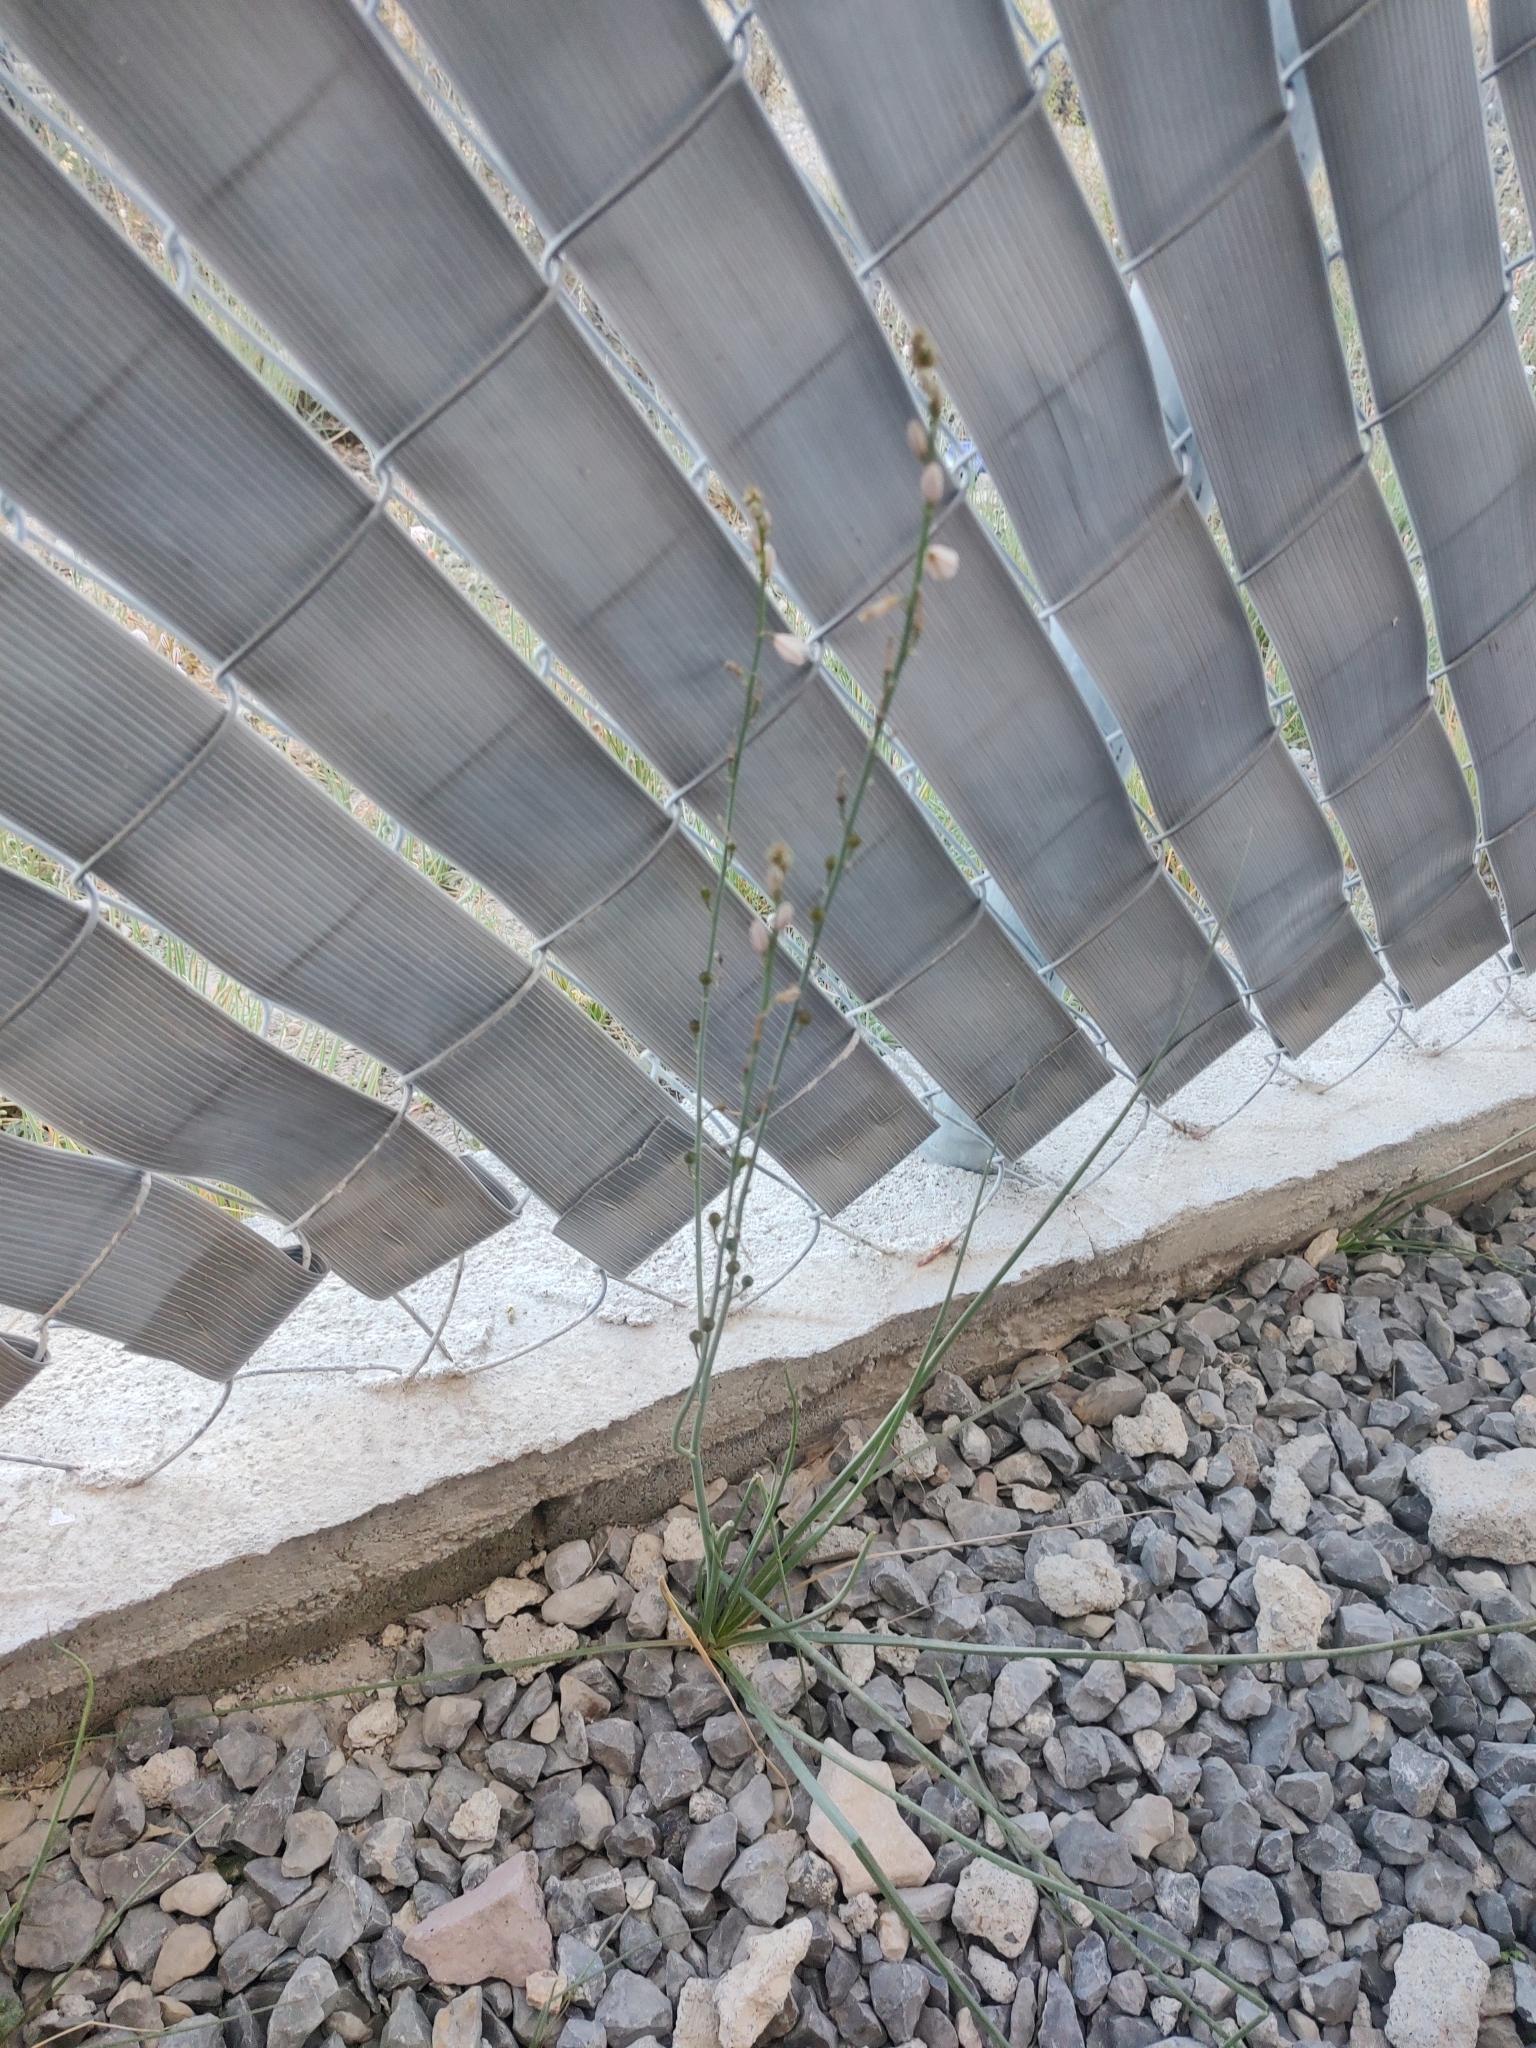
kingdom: Plantae
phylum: Tracheophyta
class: Liliopsida
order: Asparagales
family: Asphodelaceae
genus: Asphodelus
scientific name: Asphodelus fistulosus
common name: Onionweed
